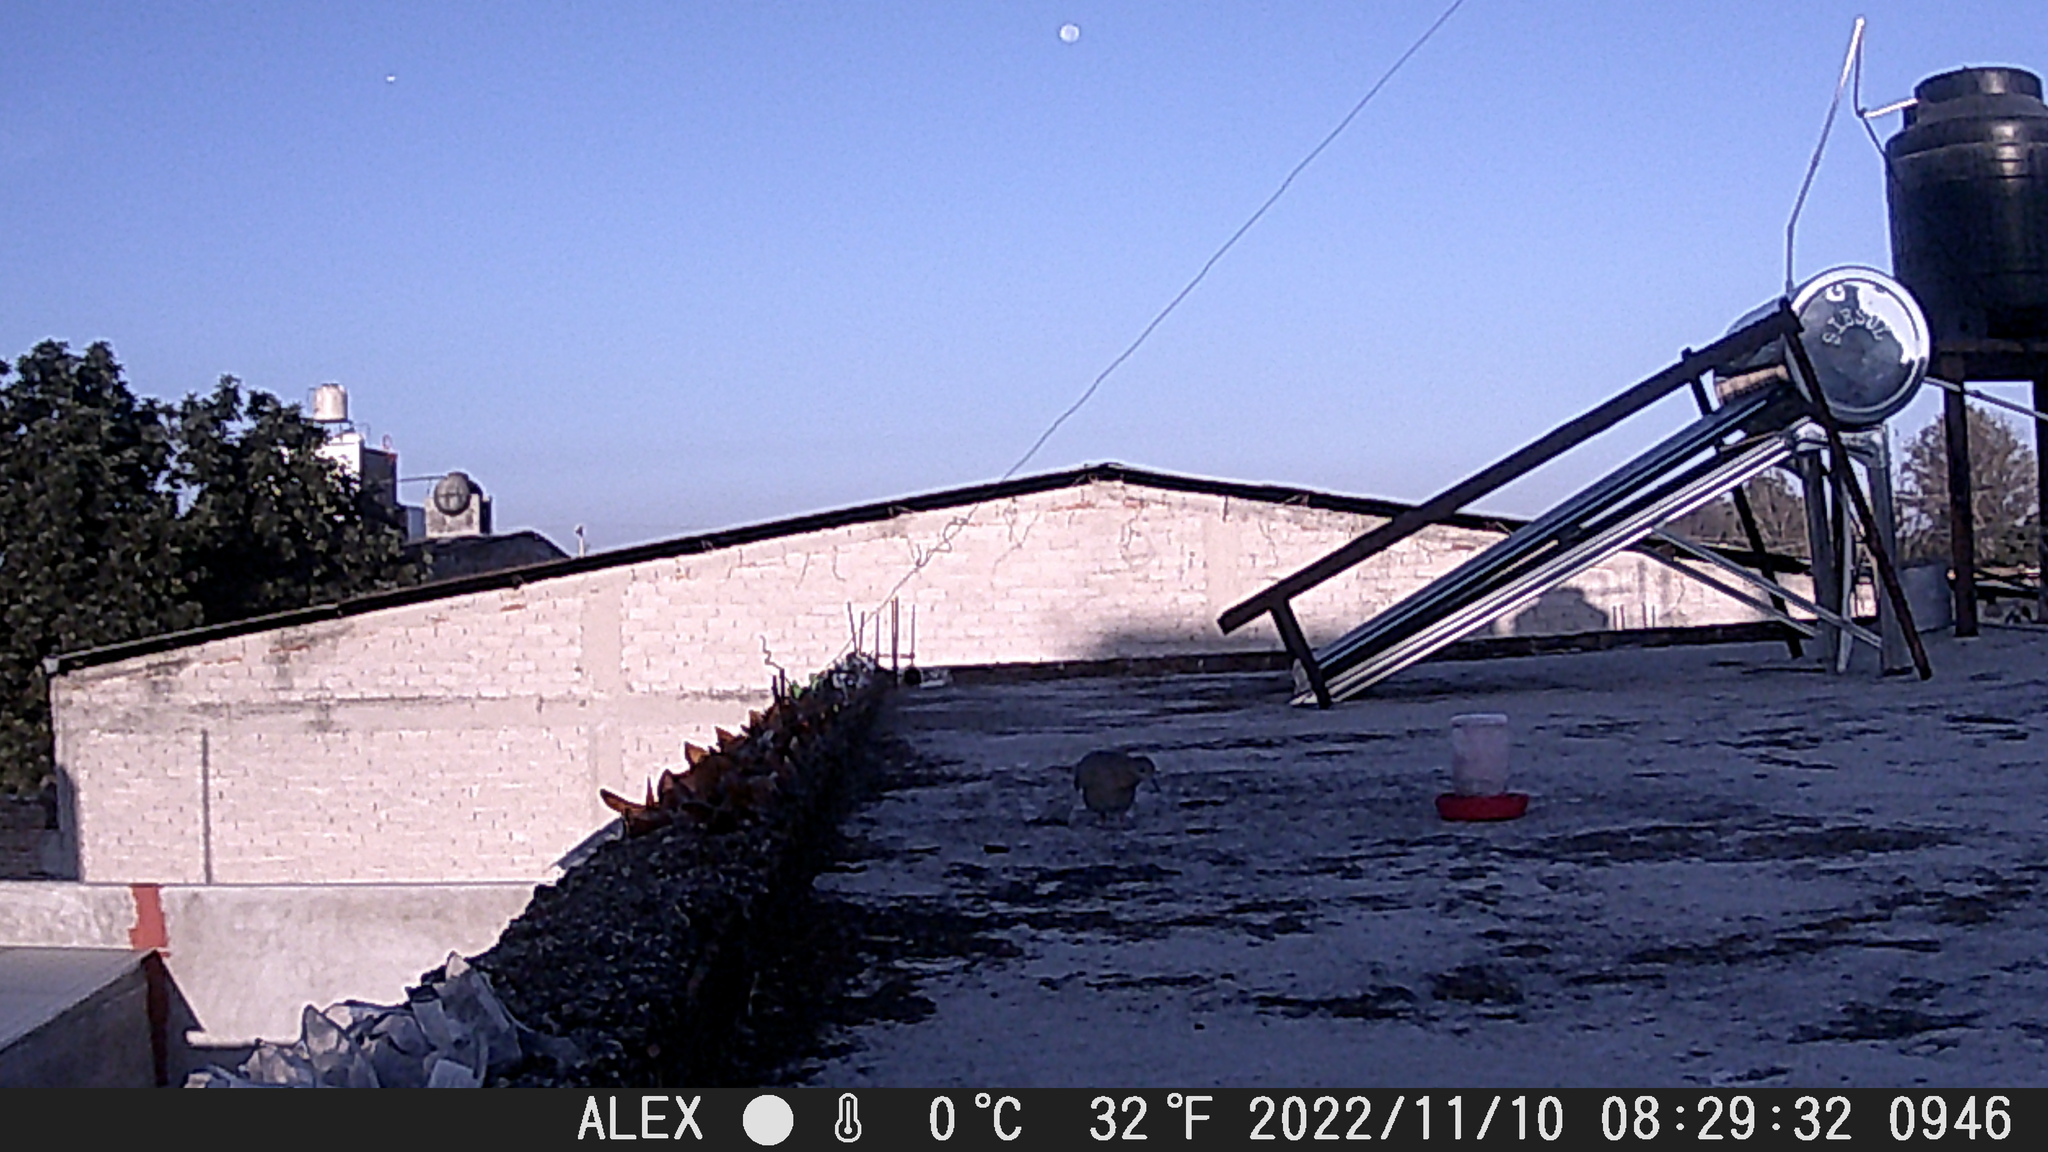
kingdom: Animalia
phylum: Chordata
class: Aves
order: Columbiformes
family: Columbidae
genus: Zenaida
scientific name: Zenaida asiatica
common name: White-winged dove
